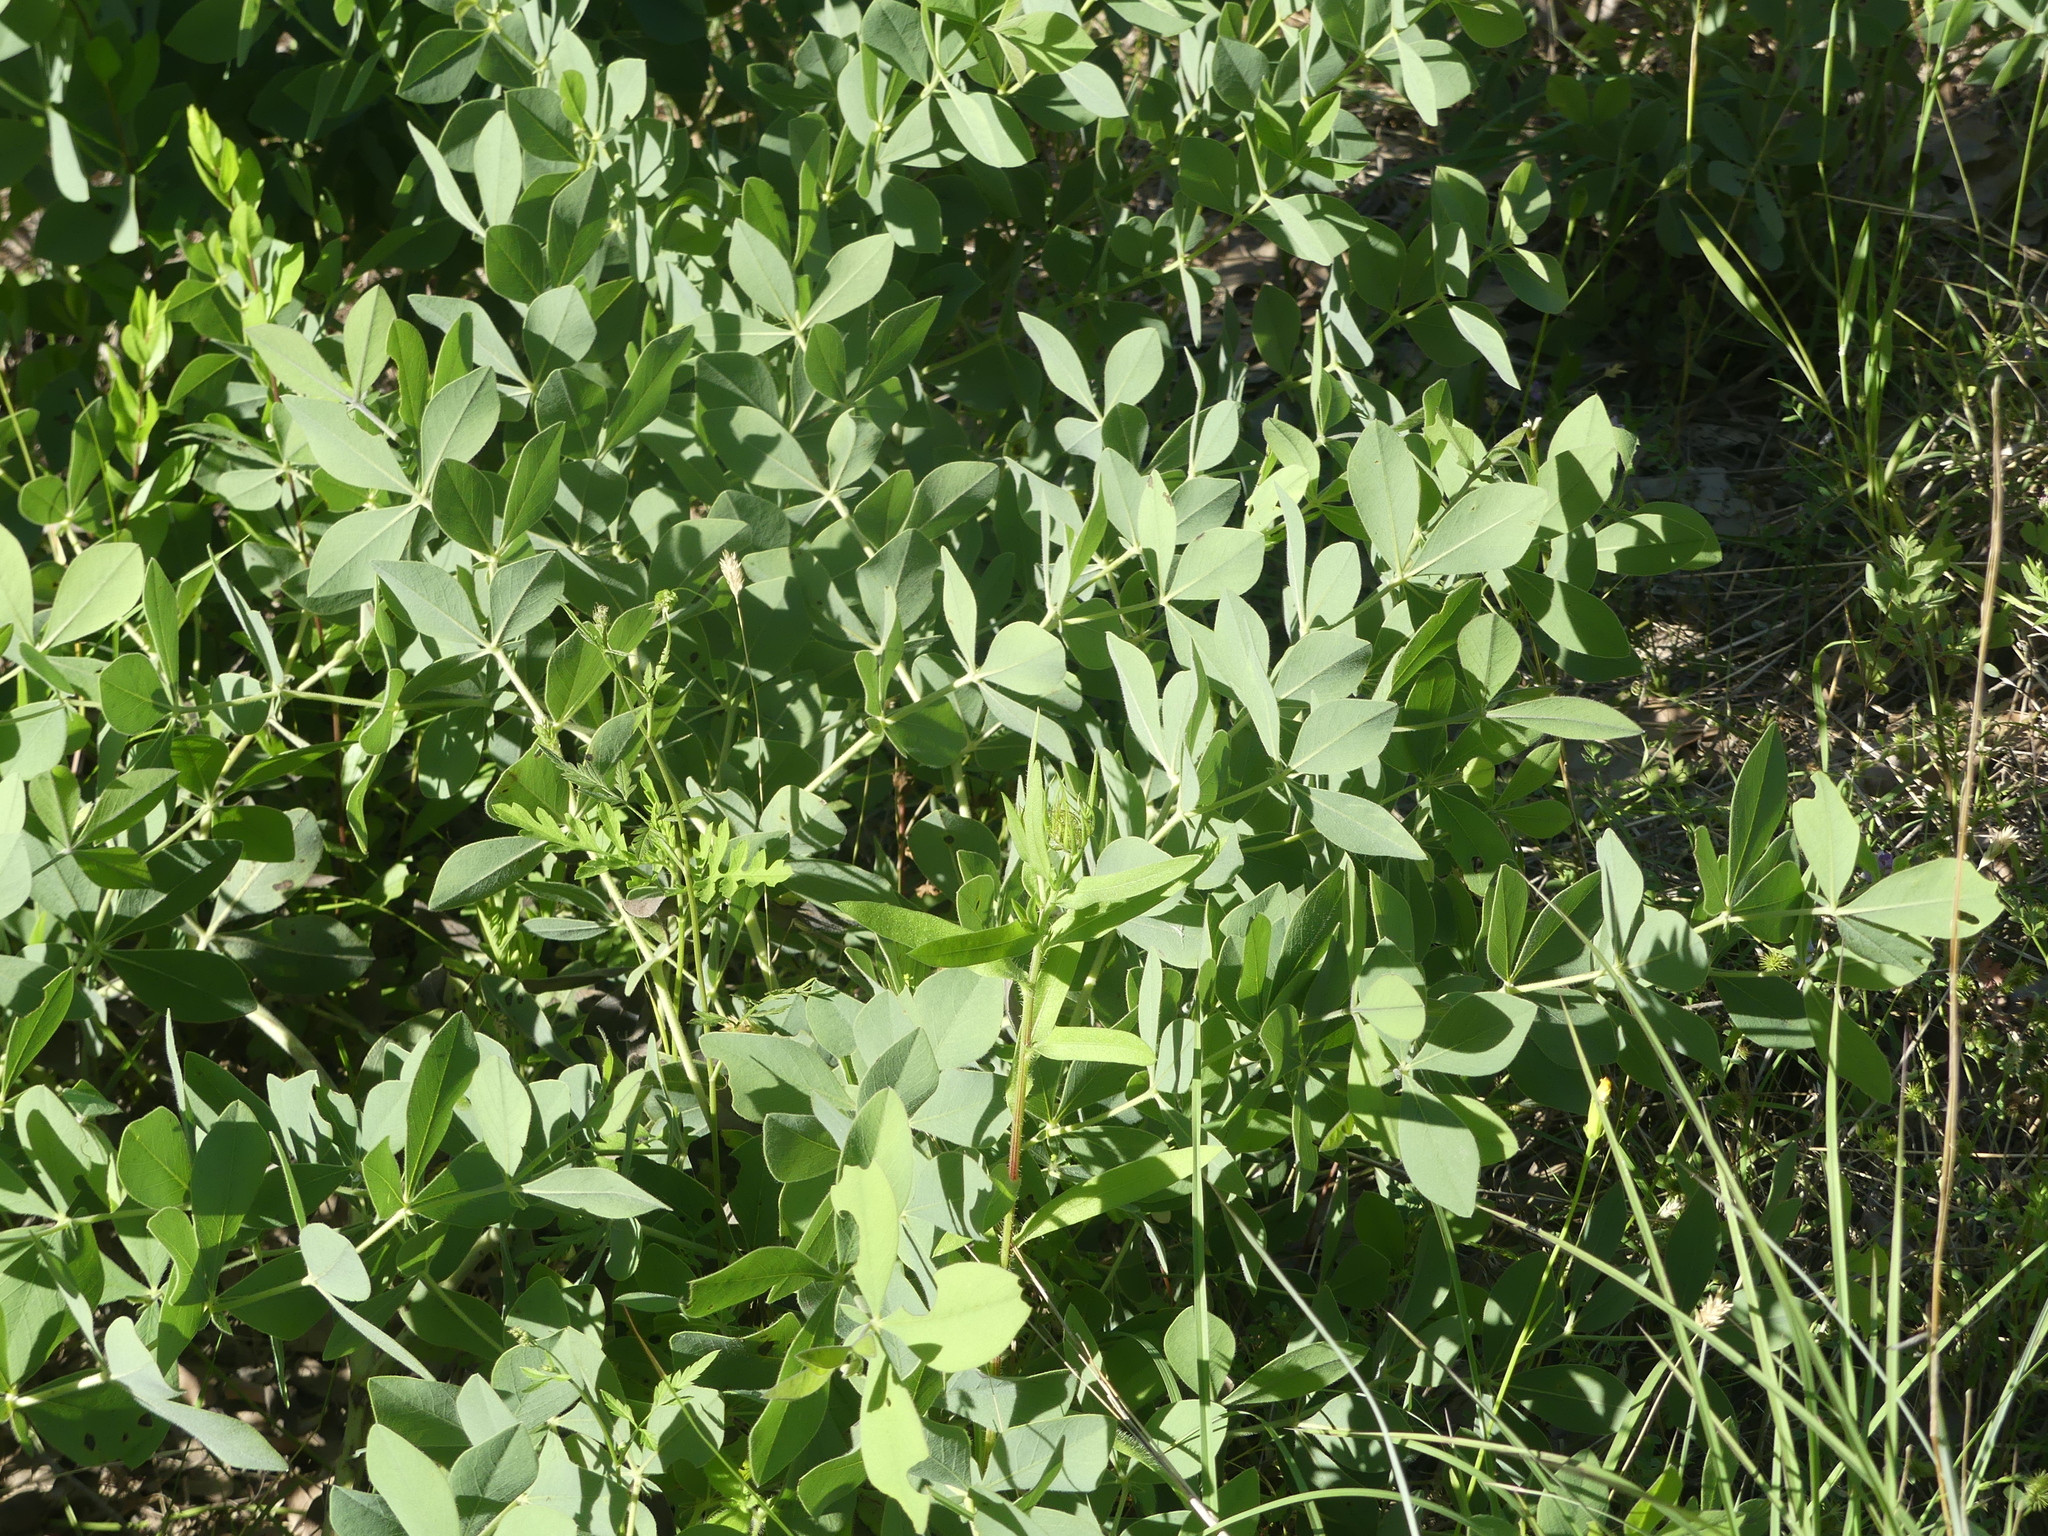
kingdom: Plantae
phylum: Tracheophyta
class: Magnoliopsida
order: Fabales
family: Fabaceae
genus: Baptisia
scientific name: Baptisia bracteata
